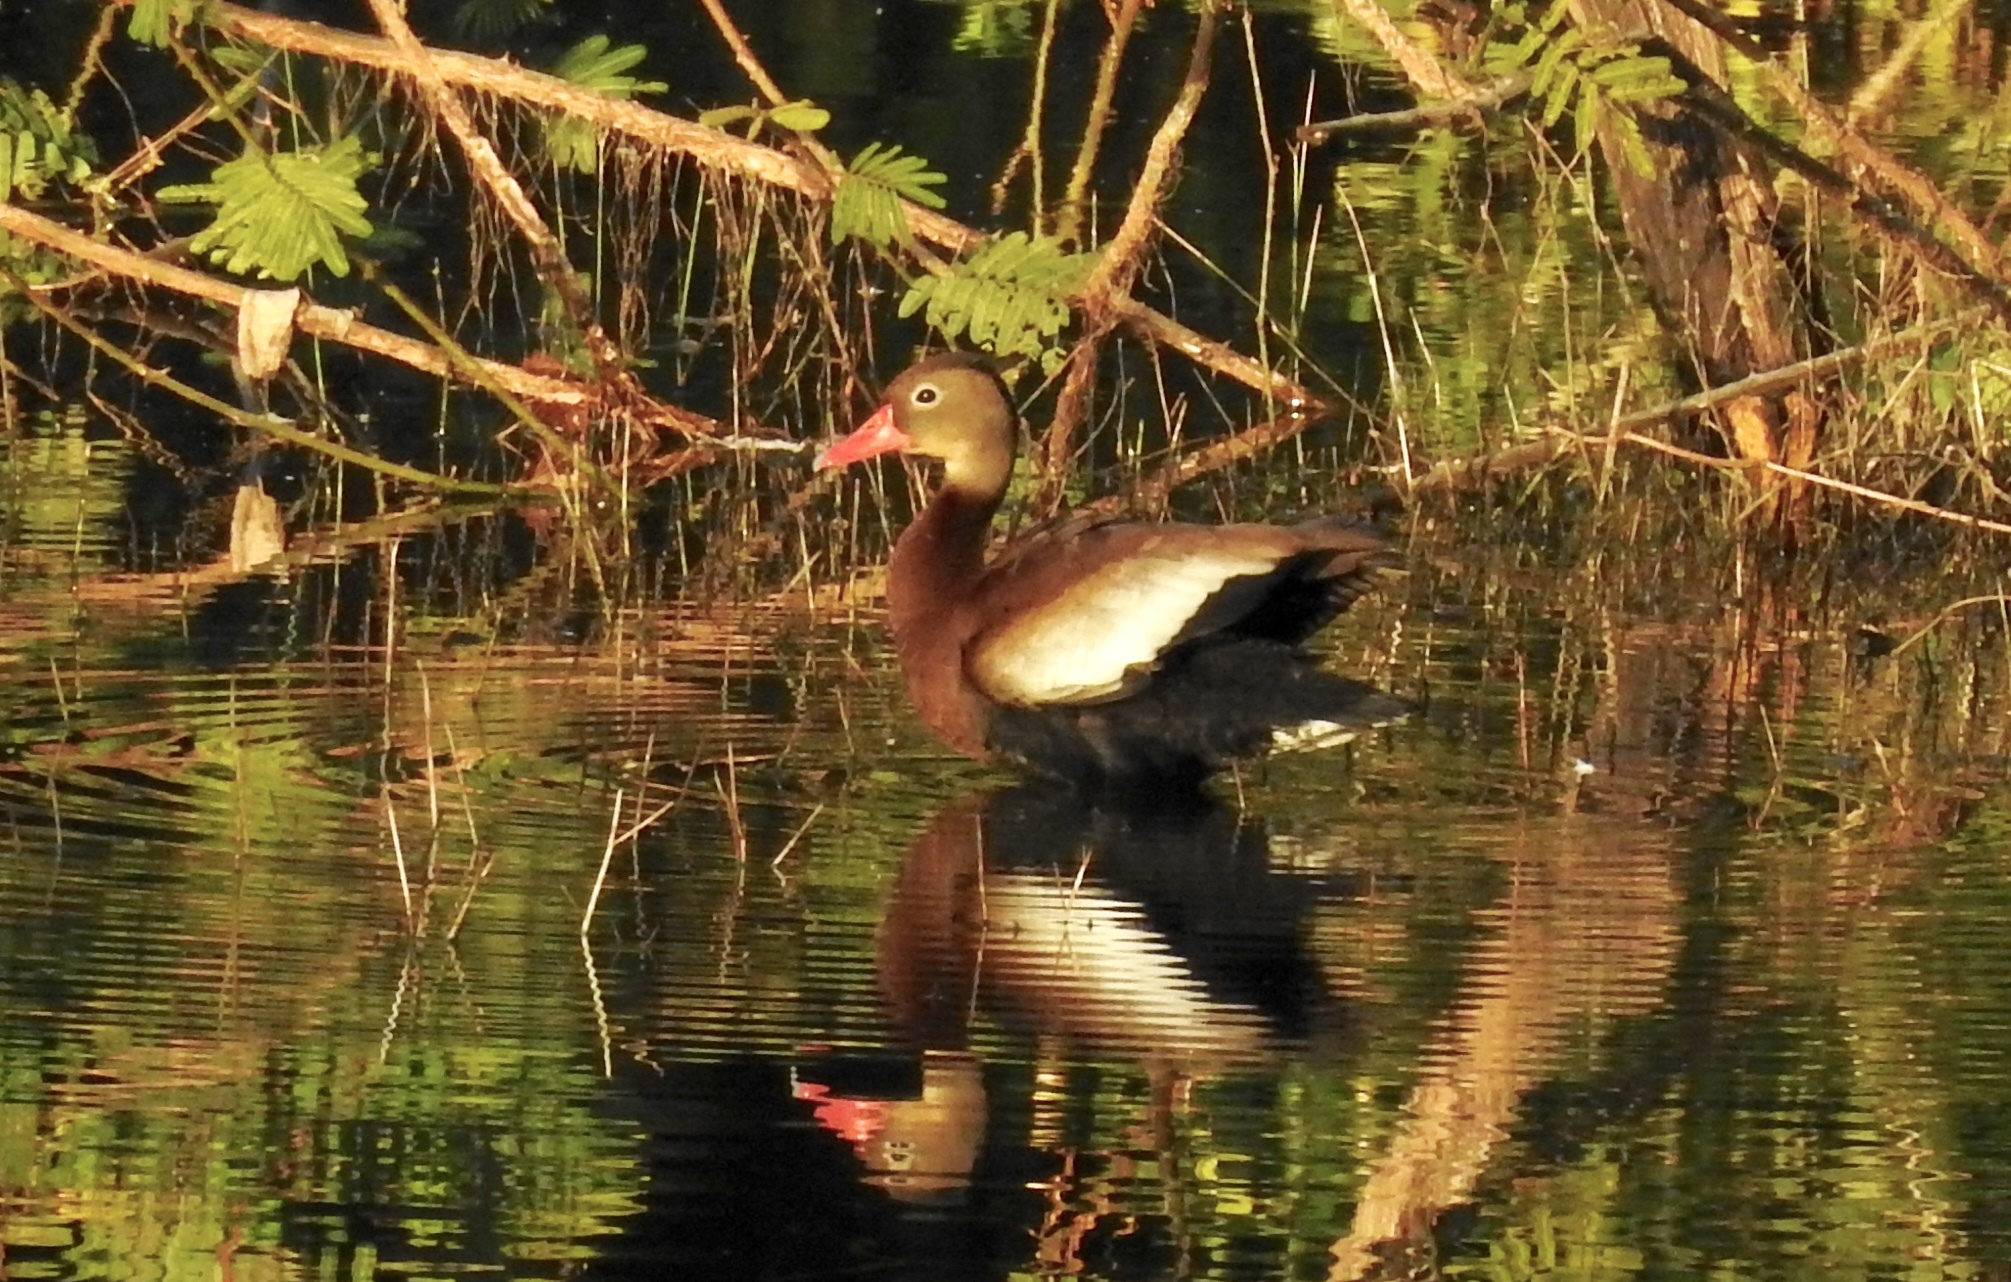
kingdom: Animalia
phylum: Chordata
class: Aves
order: Anseriformes
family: Anatidae
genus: Dendrocygna
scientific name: Dendrocygna autumnalis
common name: Black-bellied whistling duck
